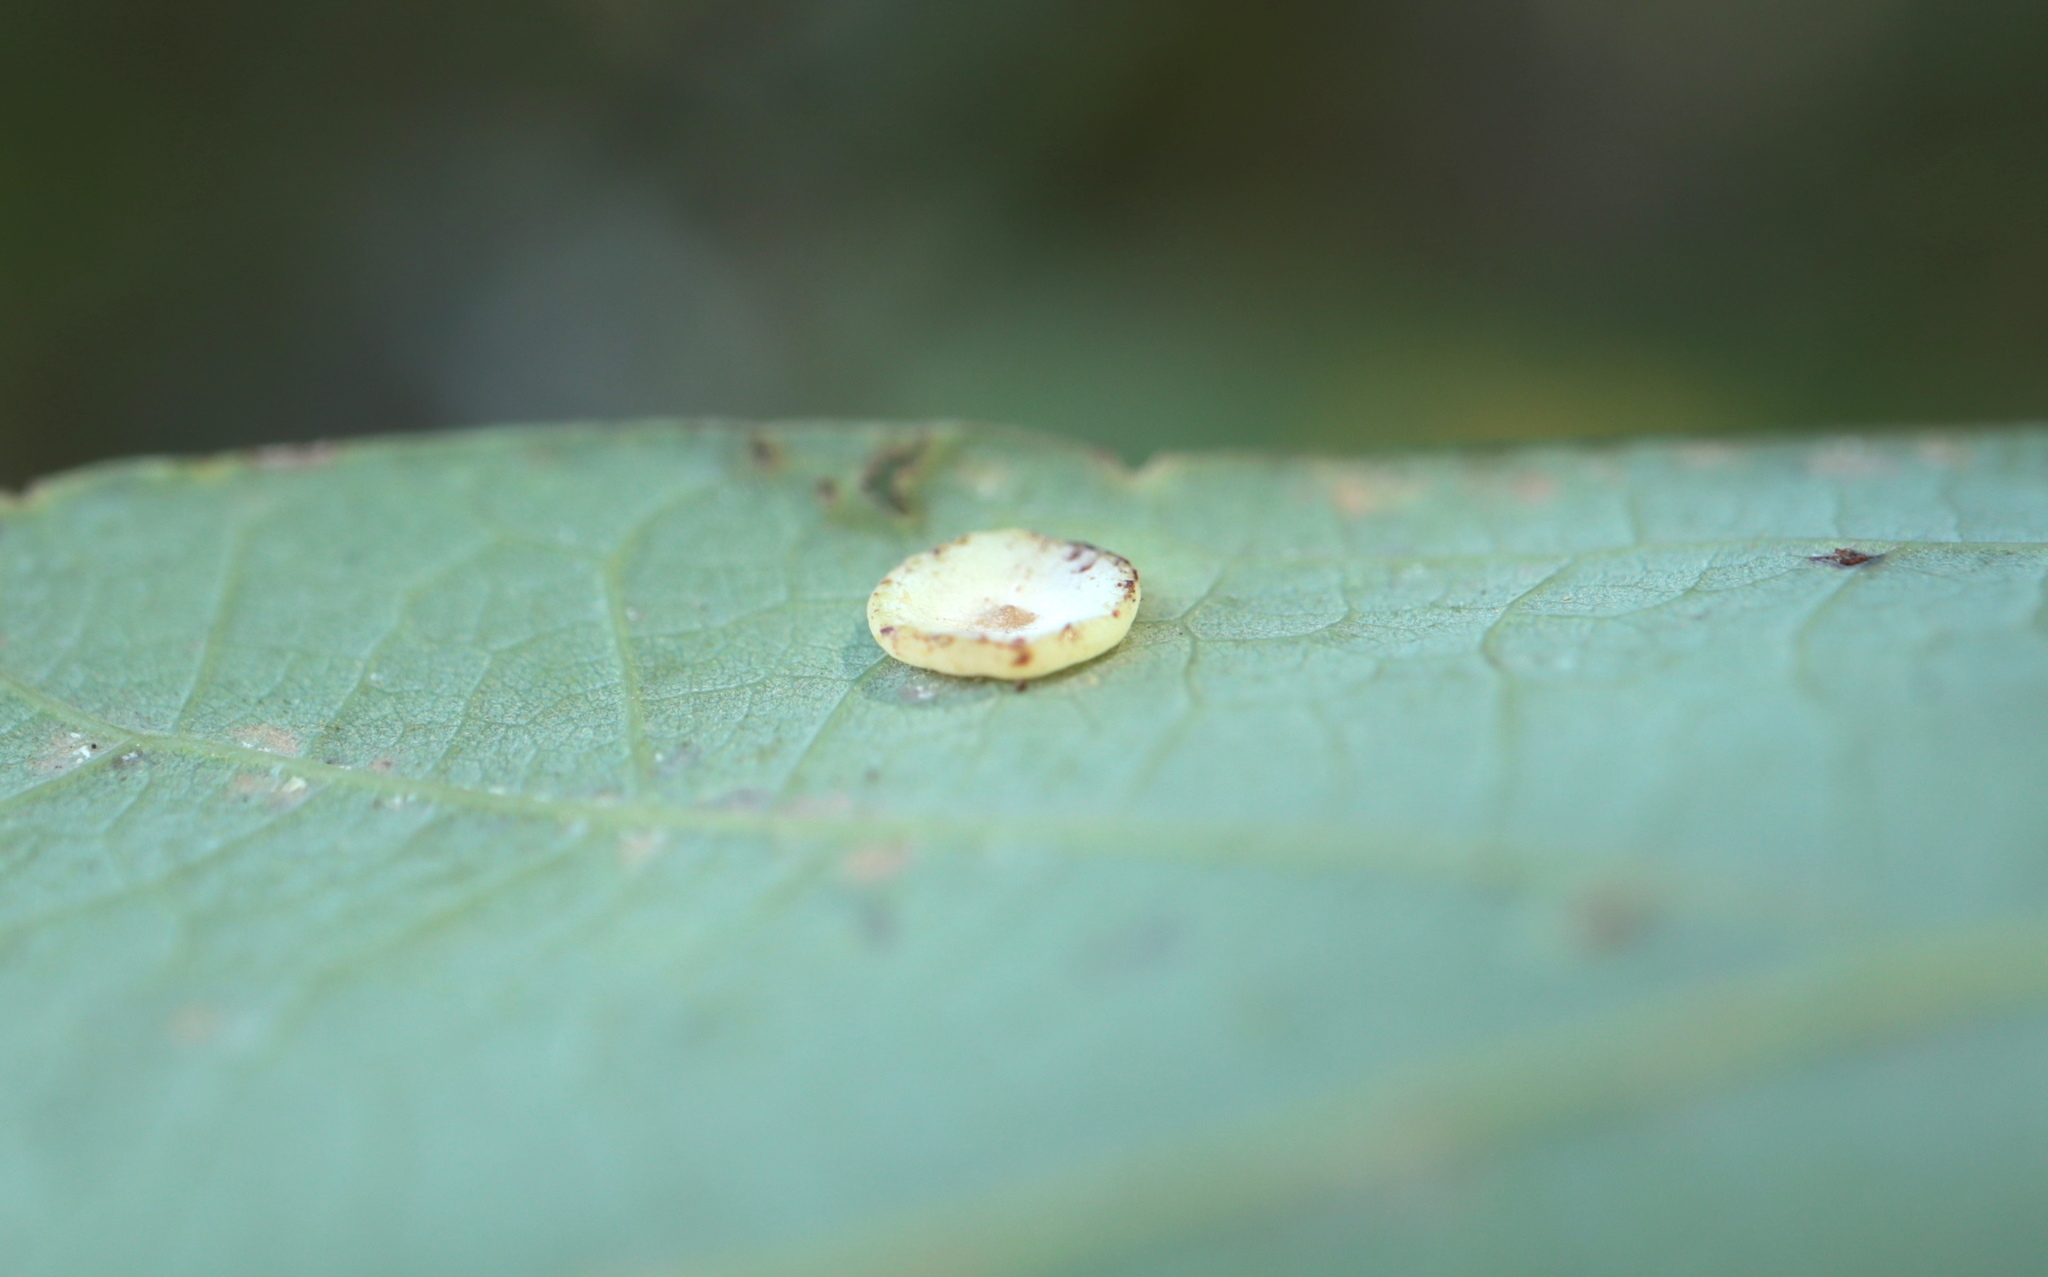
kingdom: Animalia
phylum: Arthropoda
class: Insecta
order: Hymenoptera
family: Cynipidae
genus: Phylloteras
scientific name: Phylloteras poculum
